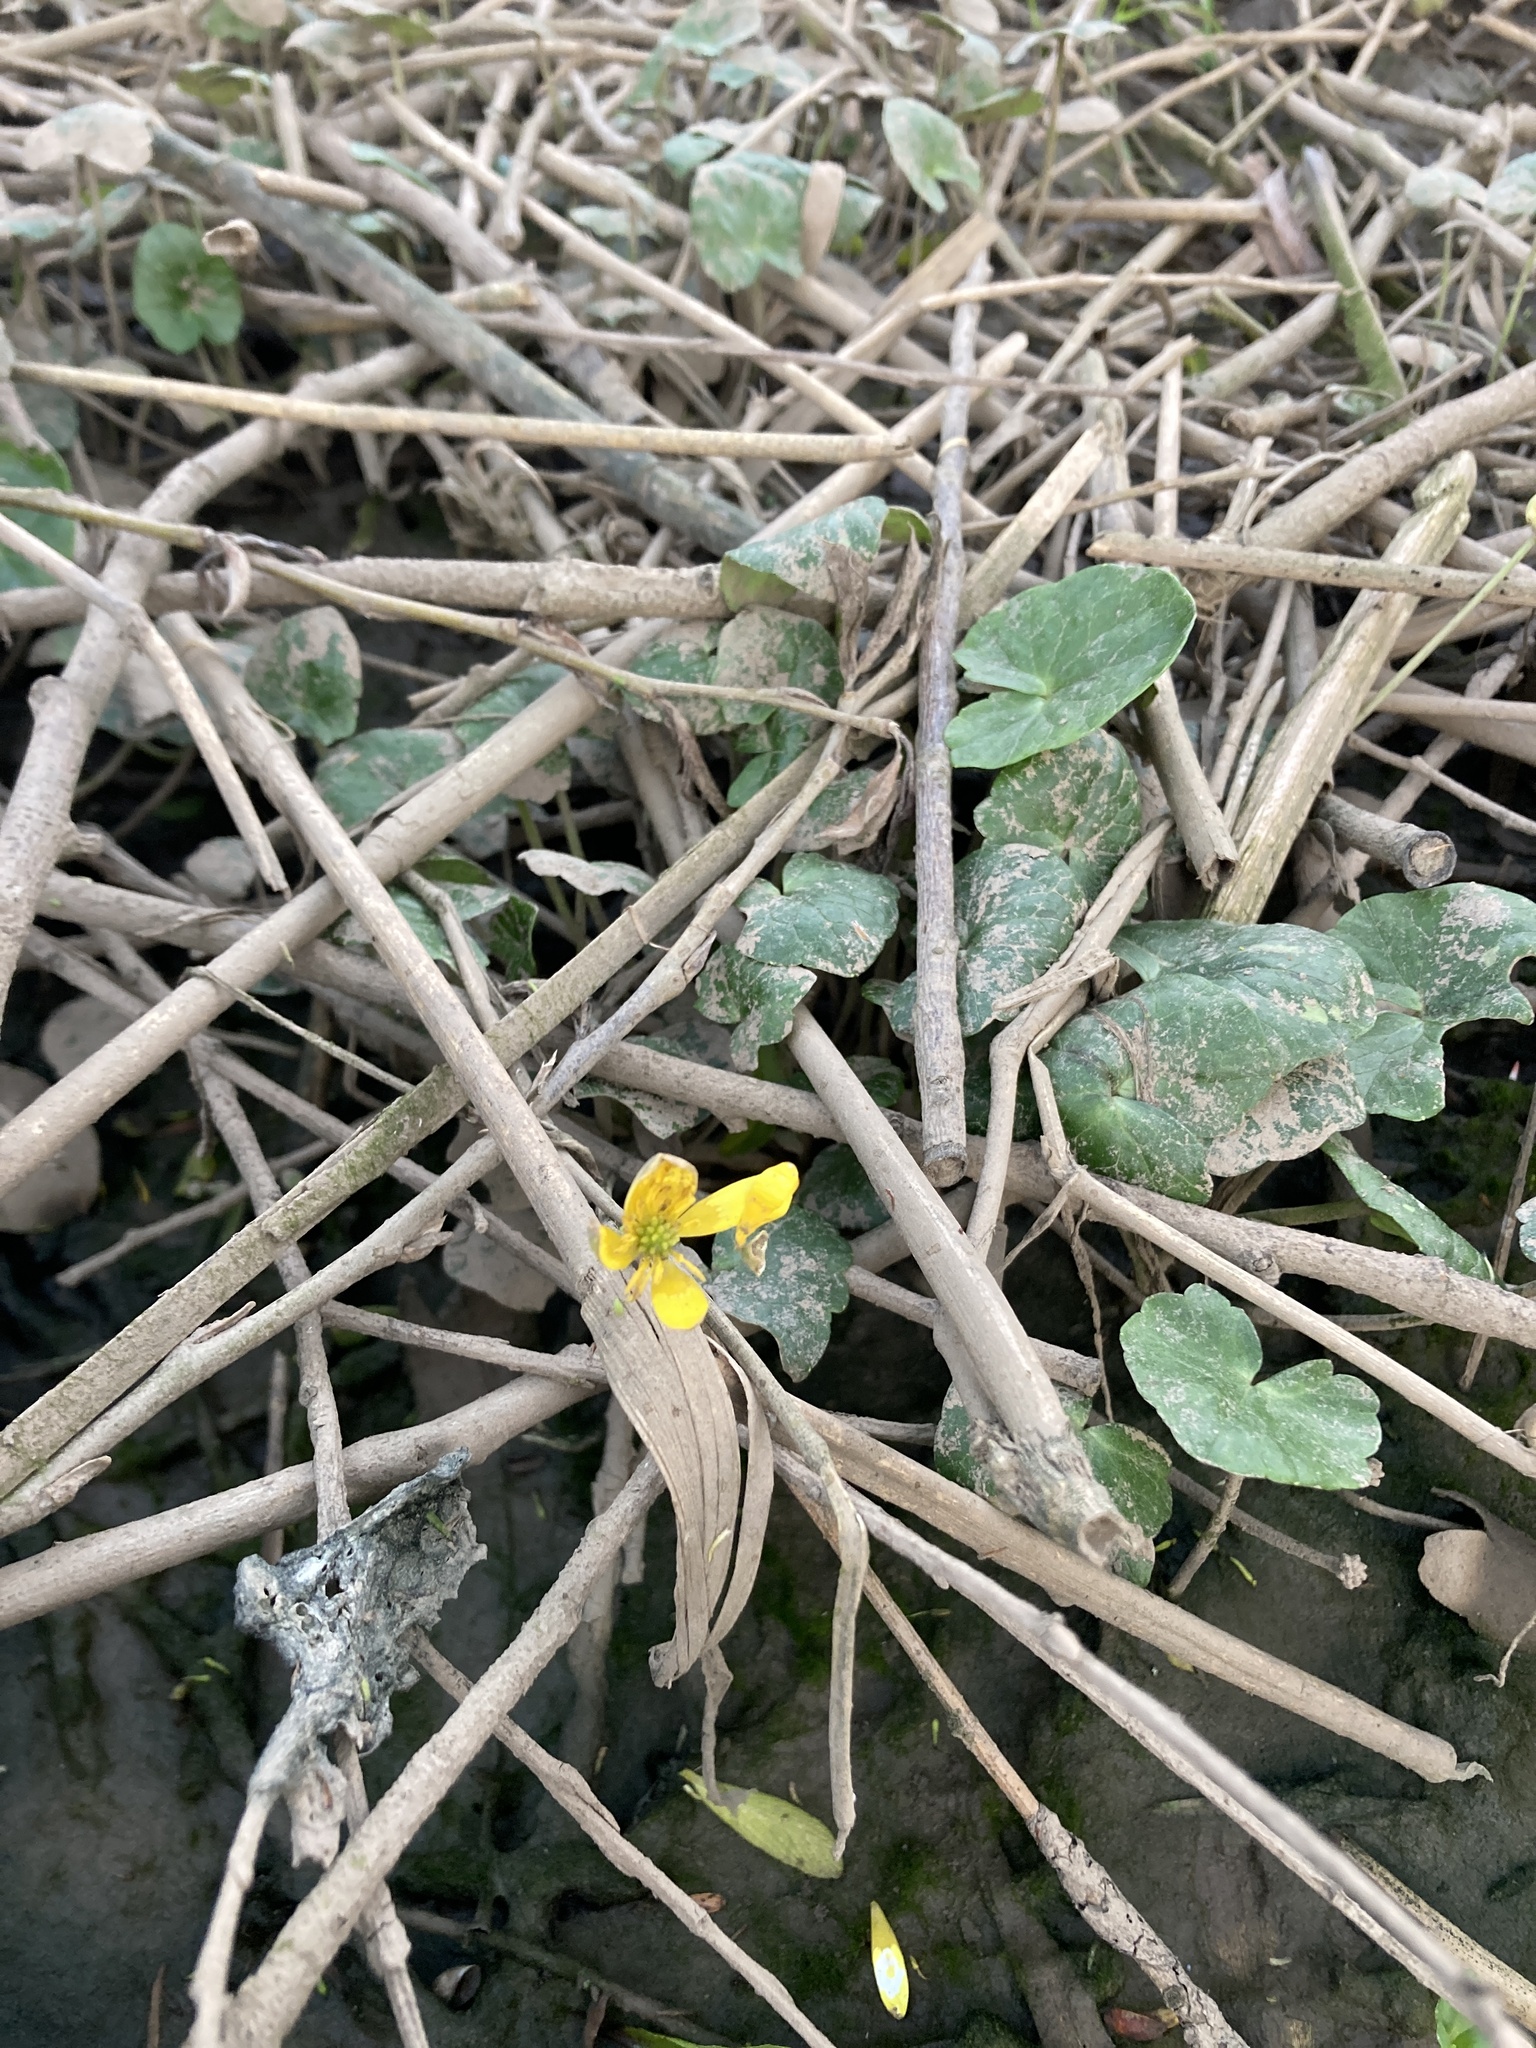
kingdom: Plantae
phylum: Tracheophyta
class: Magnoliopsida
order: Ranunculales
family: Ranunculaceae
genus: Ficaria
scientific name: Ficaria verna
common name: Lesser celandine
